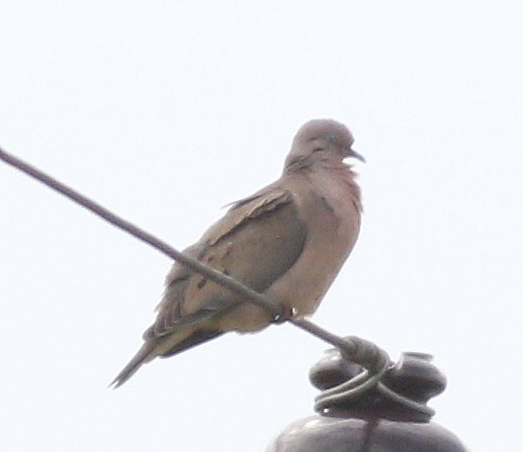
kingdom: Animalia
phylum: Chordata
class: Aves
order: Columbiformes
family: Columbidae
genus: Zenaida
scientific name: Zenaida auriculata
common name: Eared dove
